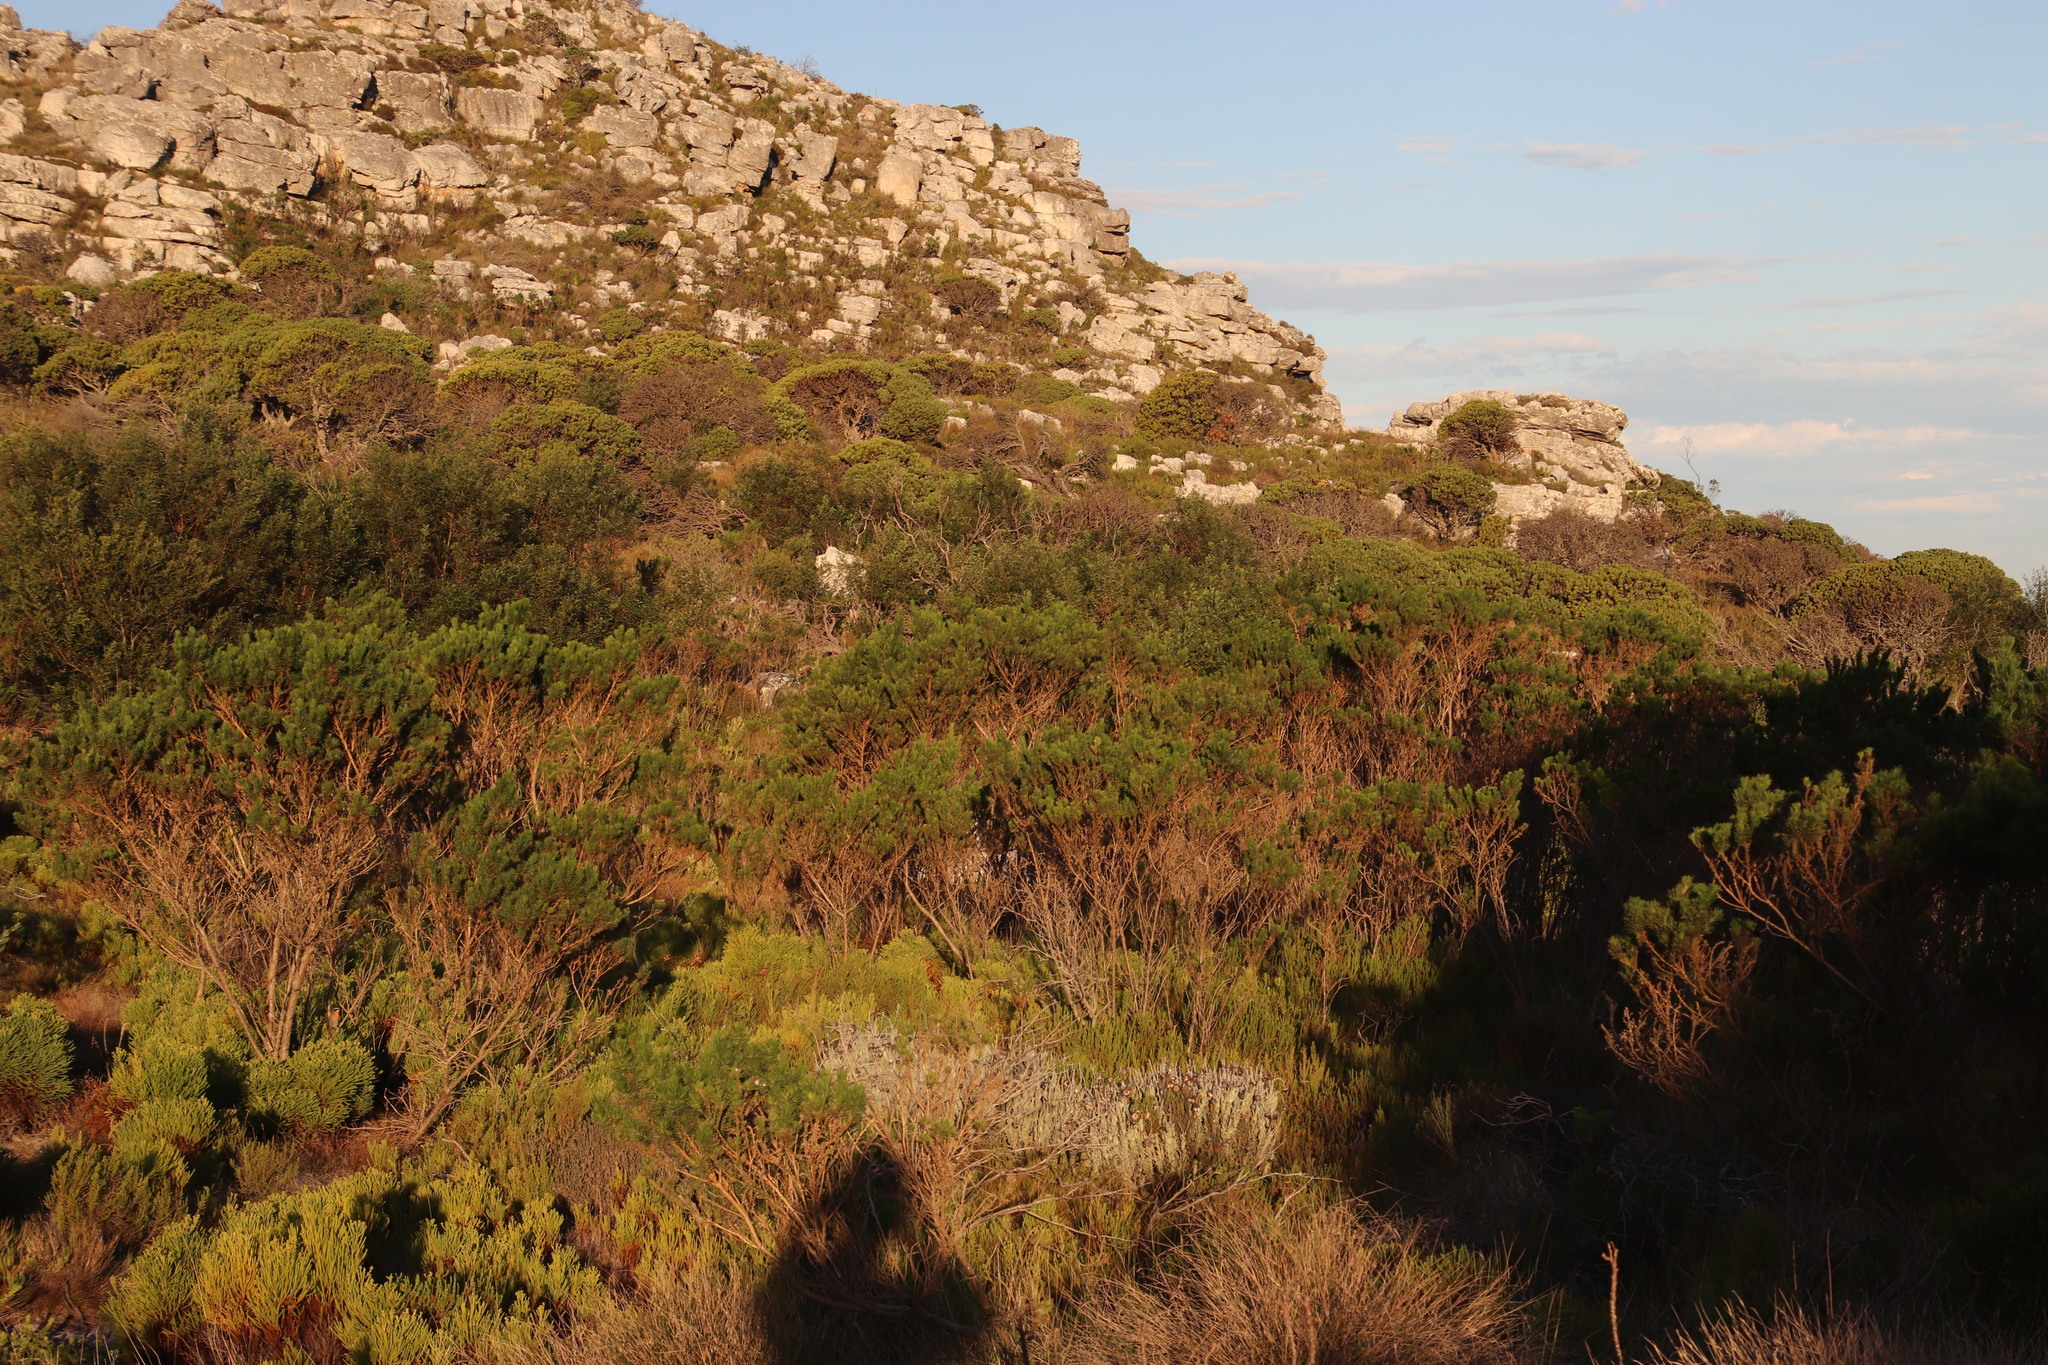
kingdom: Plantae
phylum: Tracheophyta
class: Magnoliopsida
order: Fabales
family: Fabaceae
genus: Psoralea
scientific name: Psoralea pinnata
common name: African scurfpea
